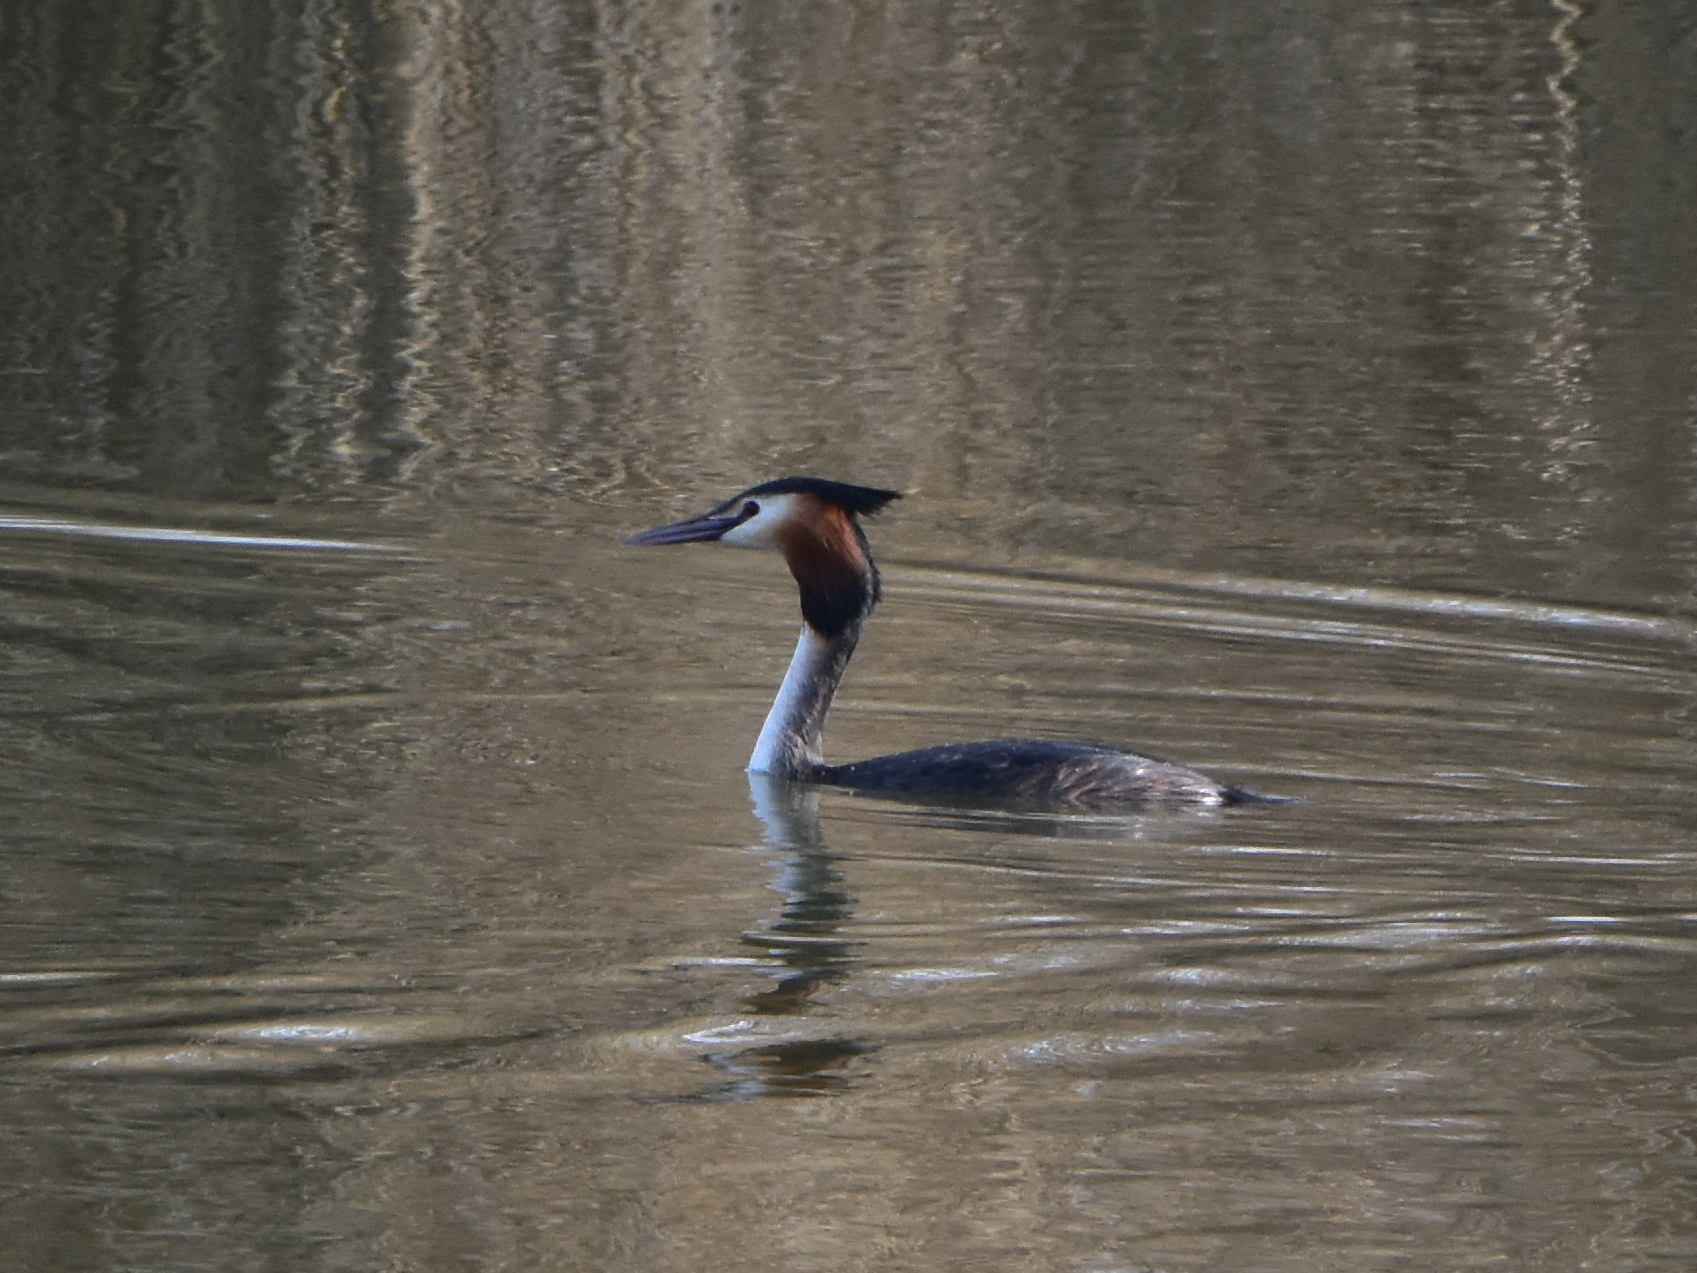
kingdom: Animalia
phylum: Chordata
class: Aves
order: Podicipediformes
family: Podicipedidae
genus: Podiceps
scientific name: Podiceps cristatus
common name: Great crested grebe
